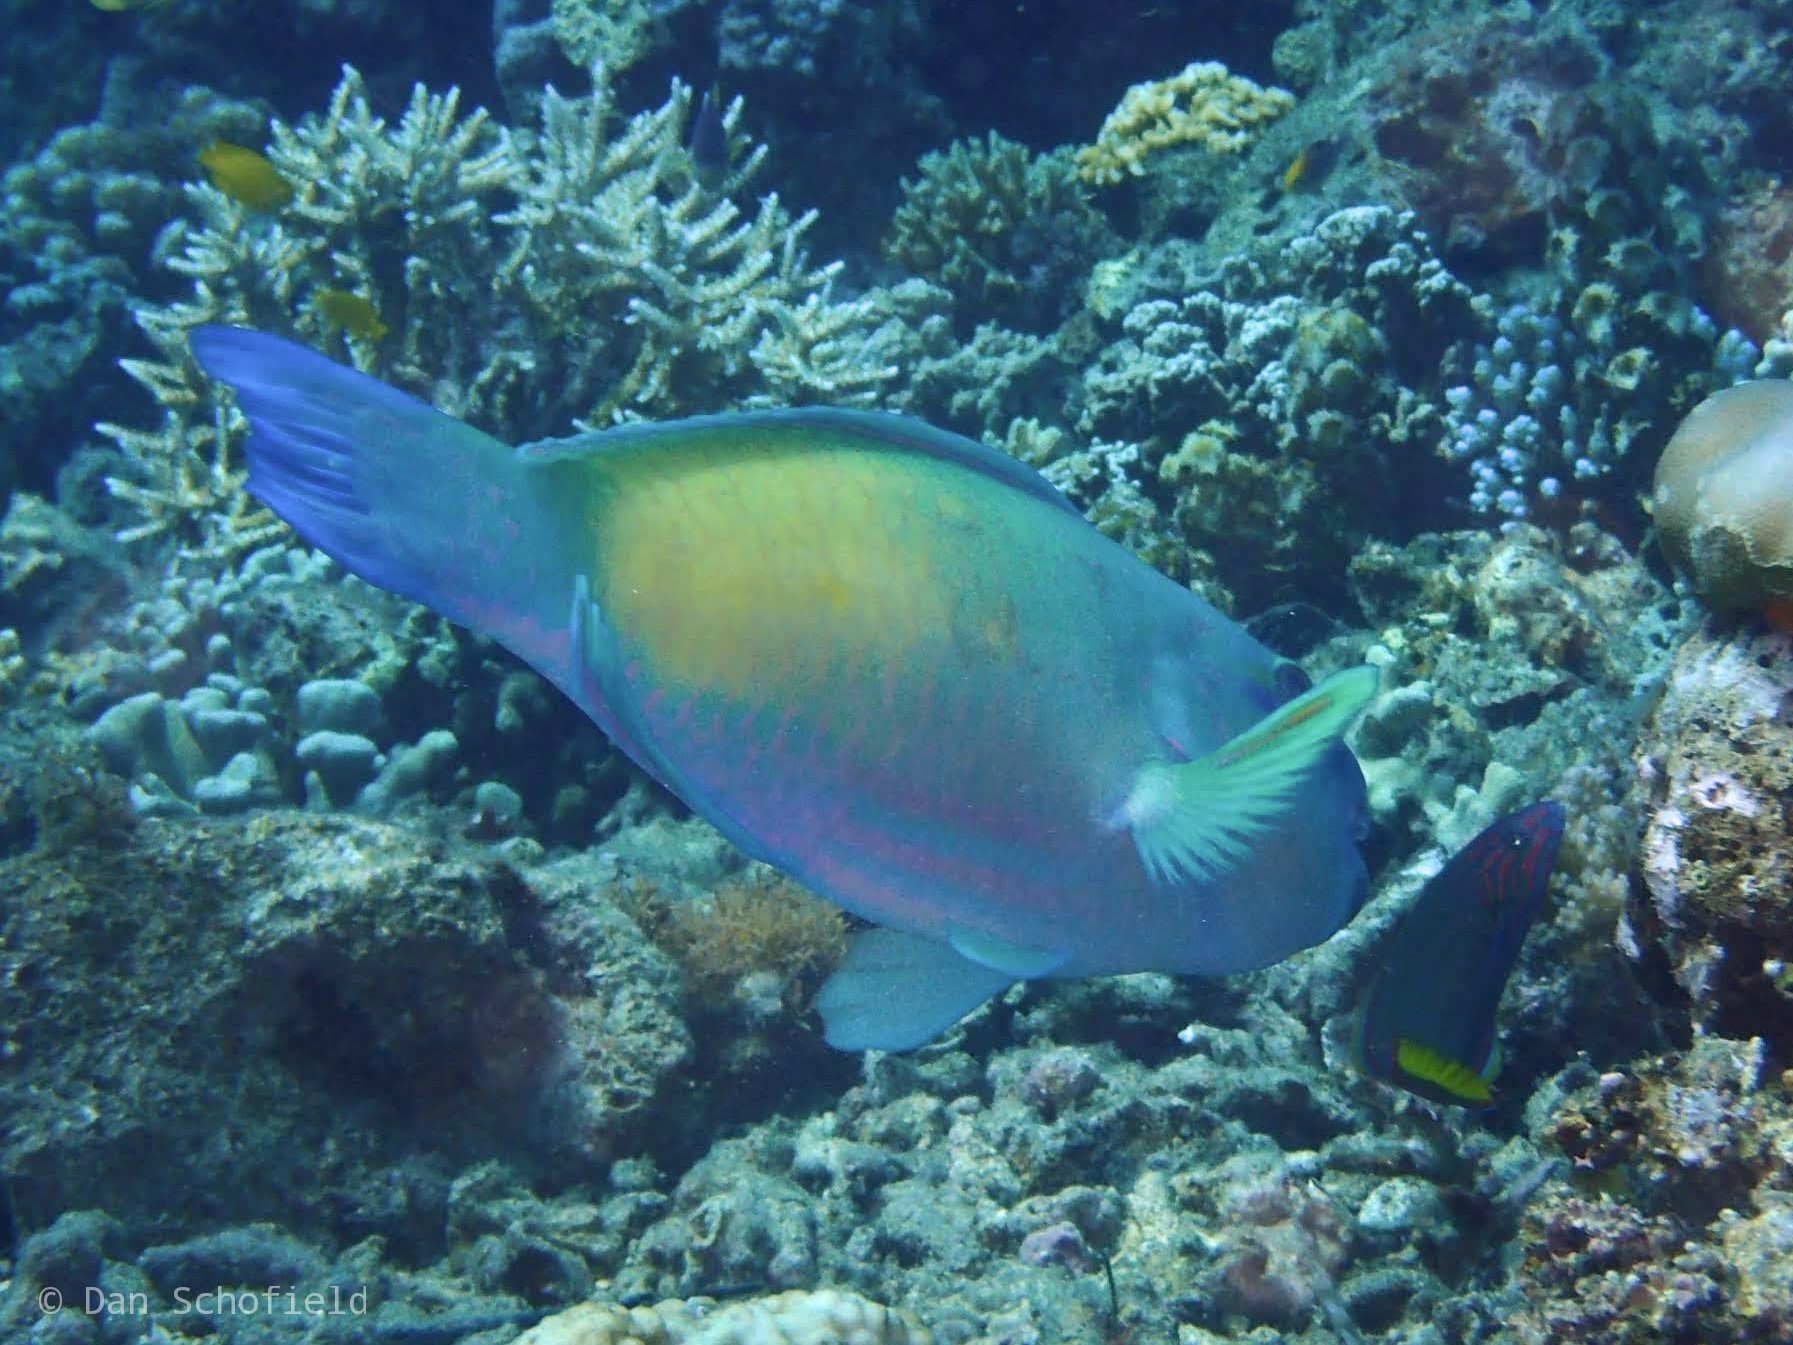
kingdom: Animalia
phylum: Chordata
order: Perciformes
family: Scaridae
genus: Chlorurus
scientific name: Chlorurus spilurus
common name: Bullethead parrotfish
